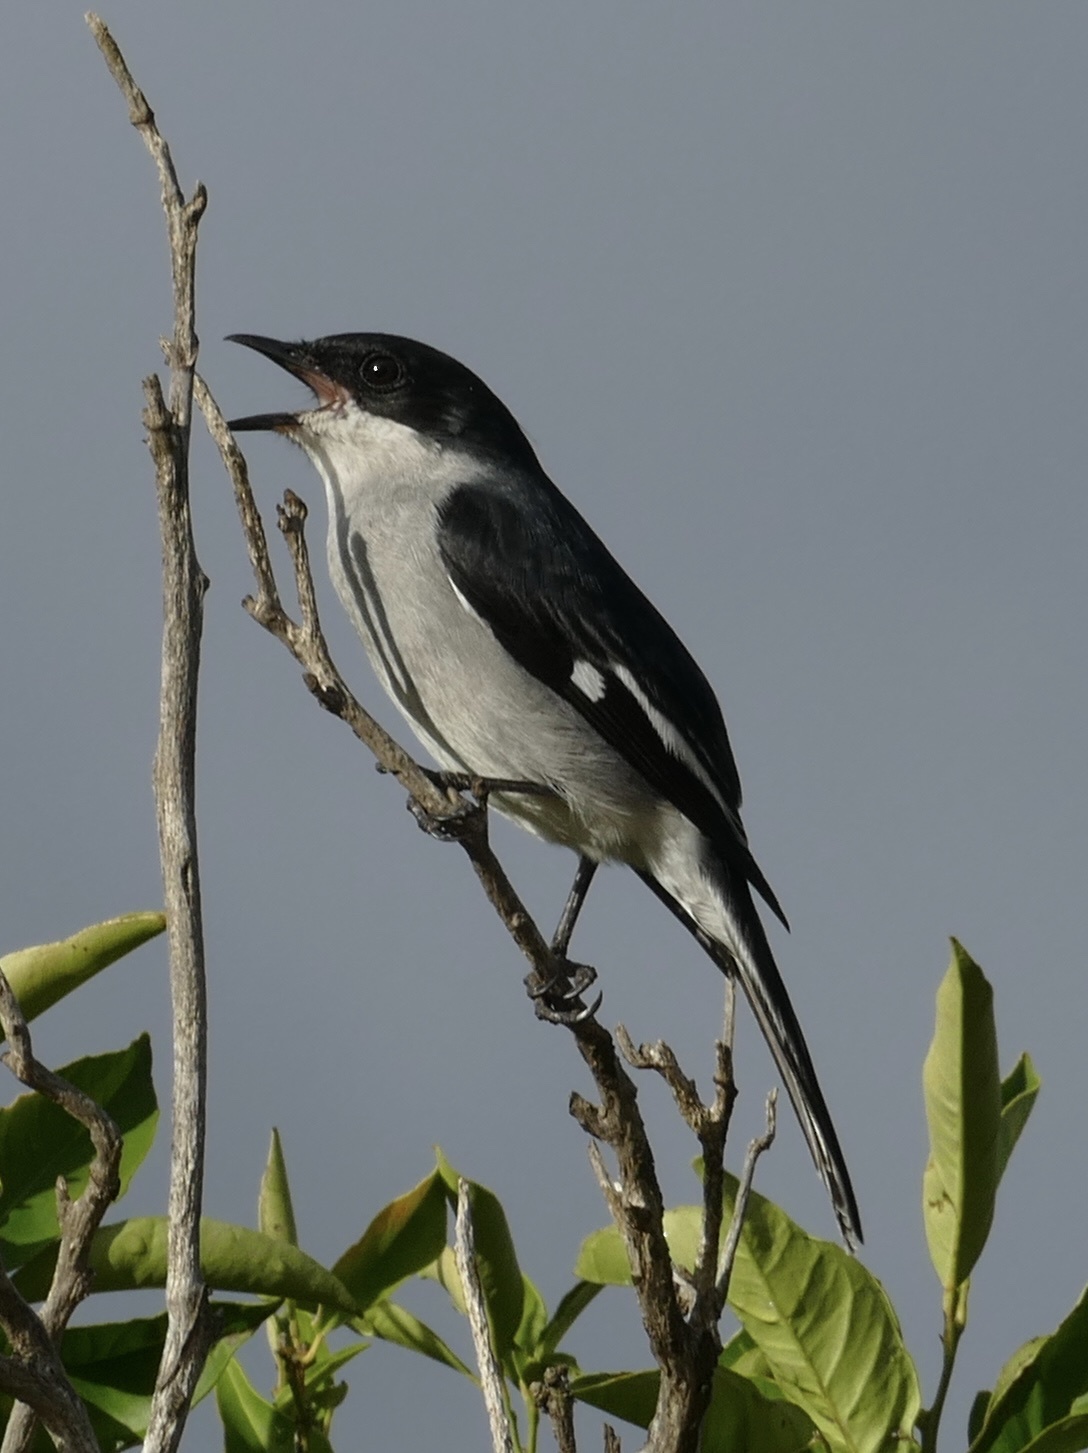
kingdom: Animalia
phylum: Chordata
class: Aves
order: Passeriformes
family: Muscicapidae
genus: Sigelus
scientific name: Sigelus silens
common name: Fiscal flycatcher
